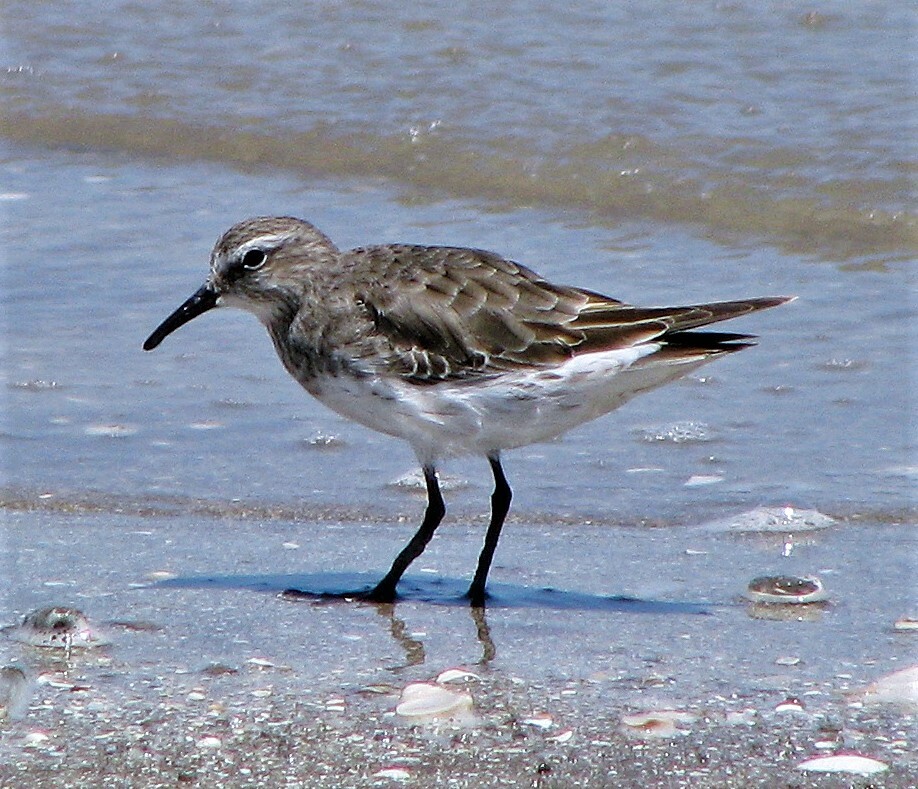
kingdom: Animalia
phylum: Chordata
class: Aves
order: Charadriiformes
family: Scolopacidae
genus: Calidris
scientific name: Calidris fuscicollis
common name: White-rumped sandpiper
